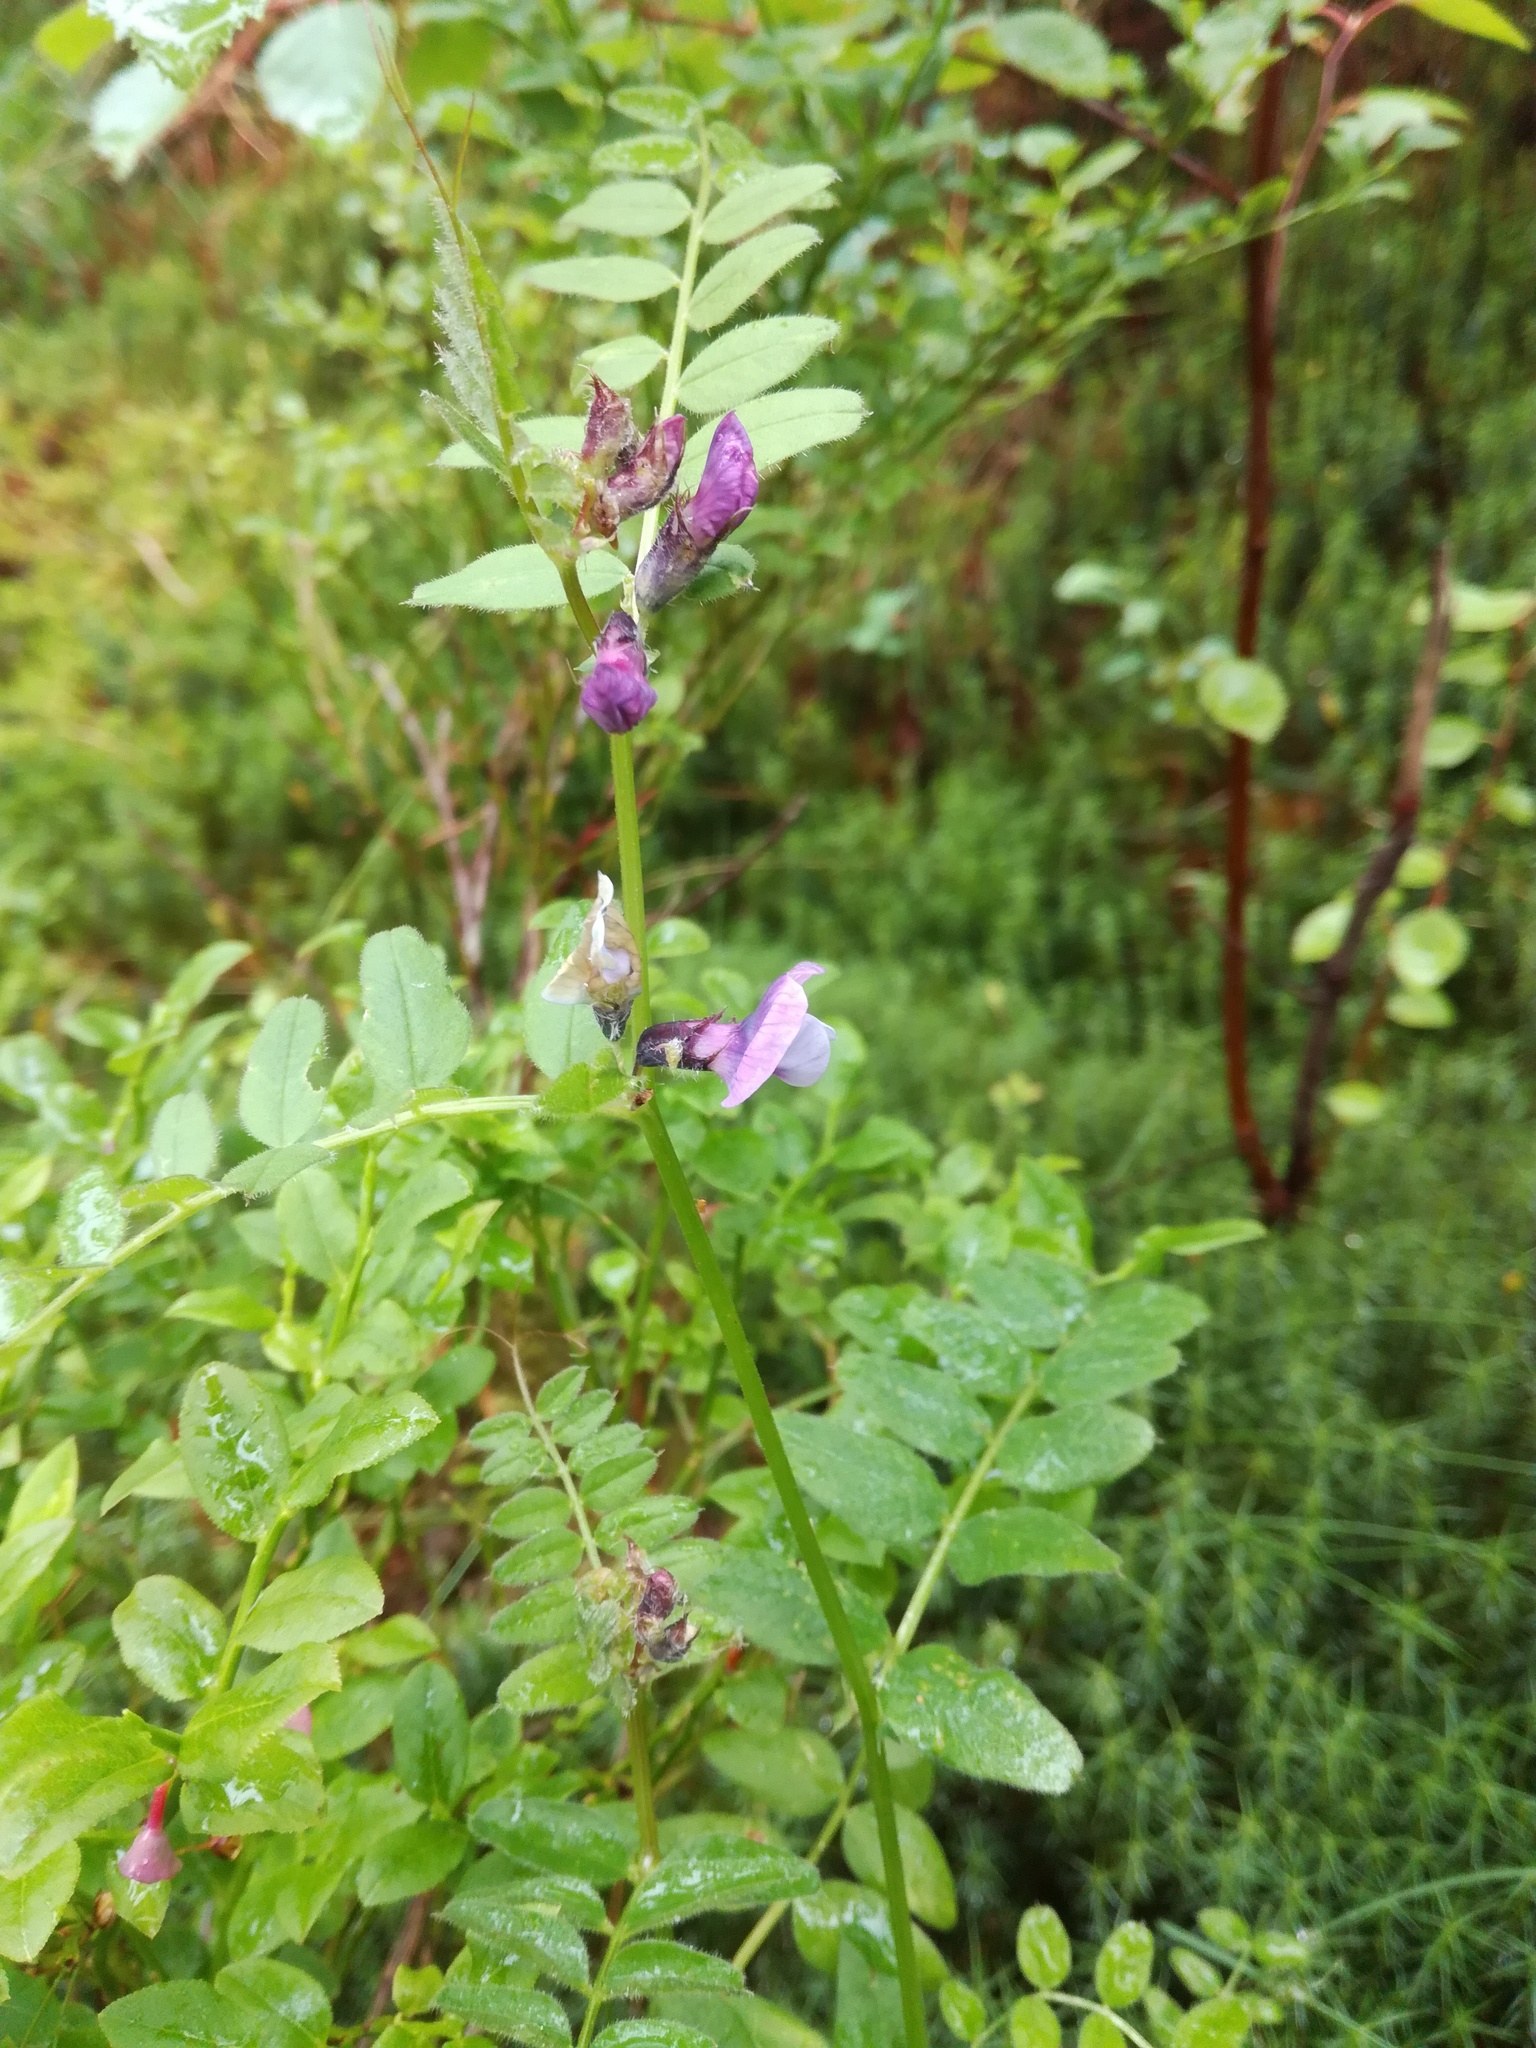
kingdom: Plantae
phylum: Tracheophyta
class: Magnoliopsida
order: Fabales
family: Fabaceae
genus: Vicia
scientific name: Vicia sepium
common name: Bush vetch
